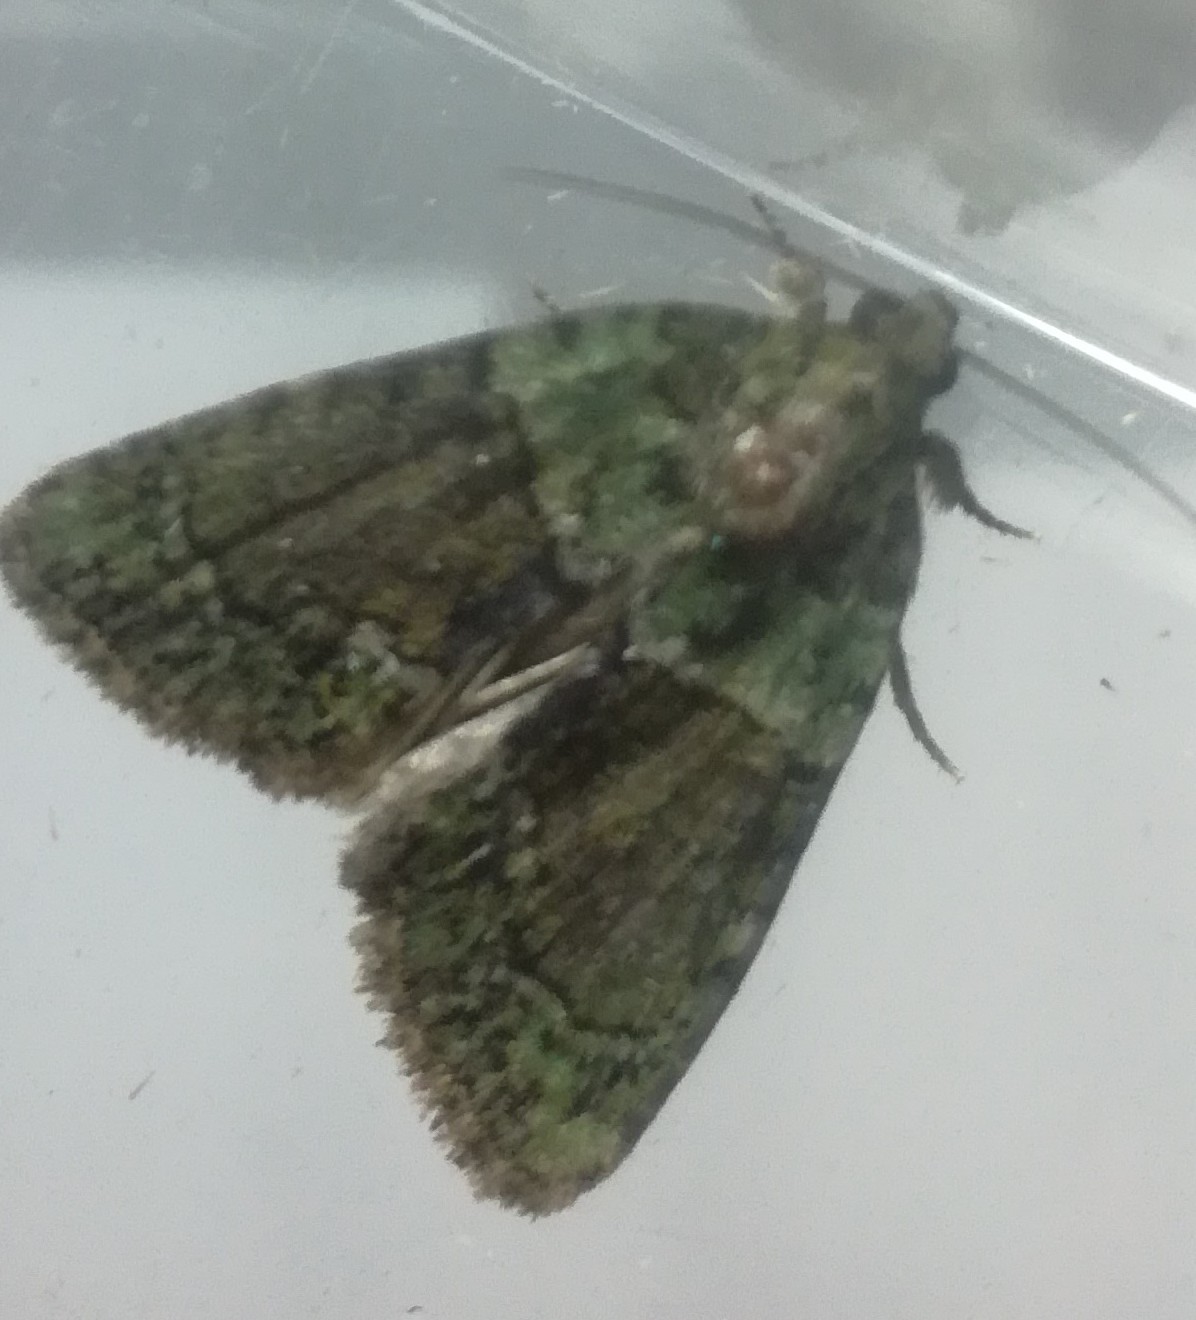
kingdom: Animalia
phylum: Arthropoda
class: Insecta
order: Lepidoptera
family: Noctuidae
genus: Cryphia
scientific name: Cryphia algae
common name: Tree-lichen beauty
